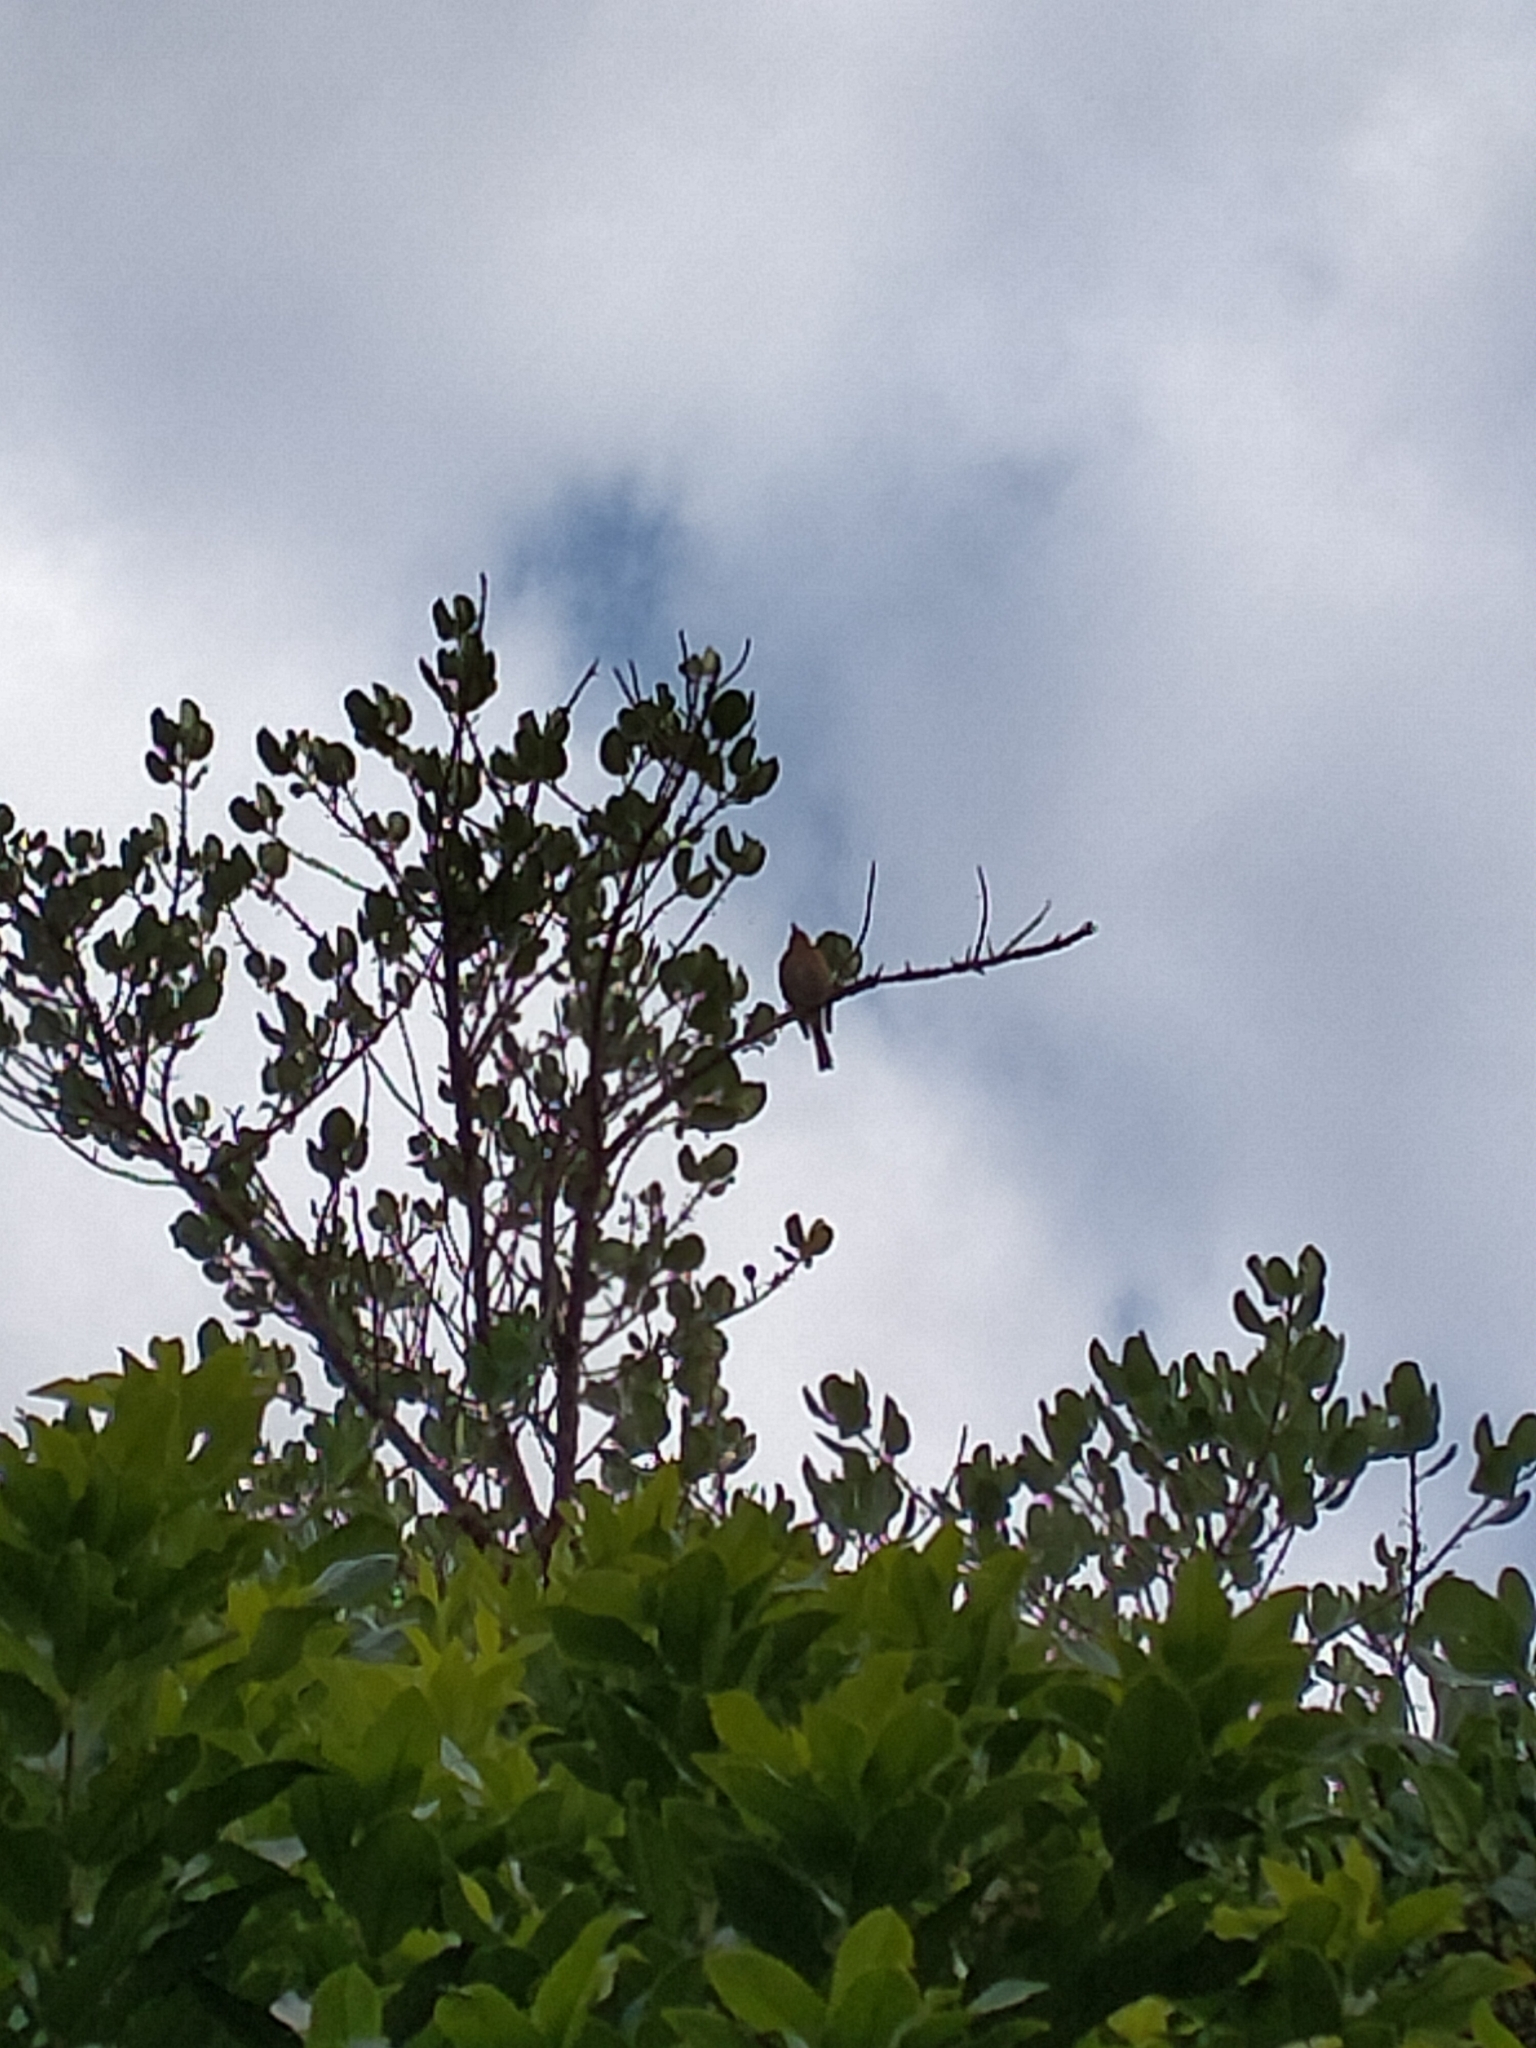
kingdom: Animalia
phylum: Chordata
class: Aves
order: Passeriformes
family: Fringillidae
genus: Fringilla
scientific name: Fringilla coelebs
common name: Common chaffinch
